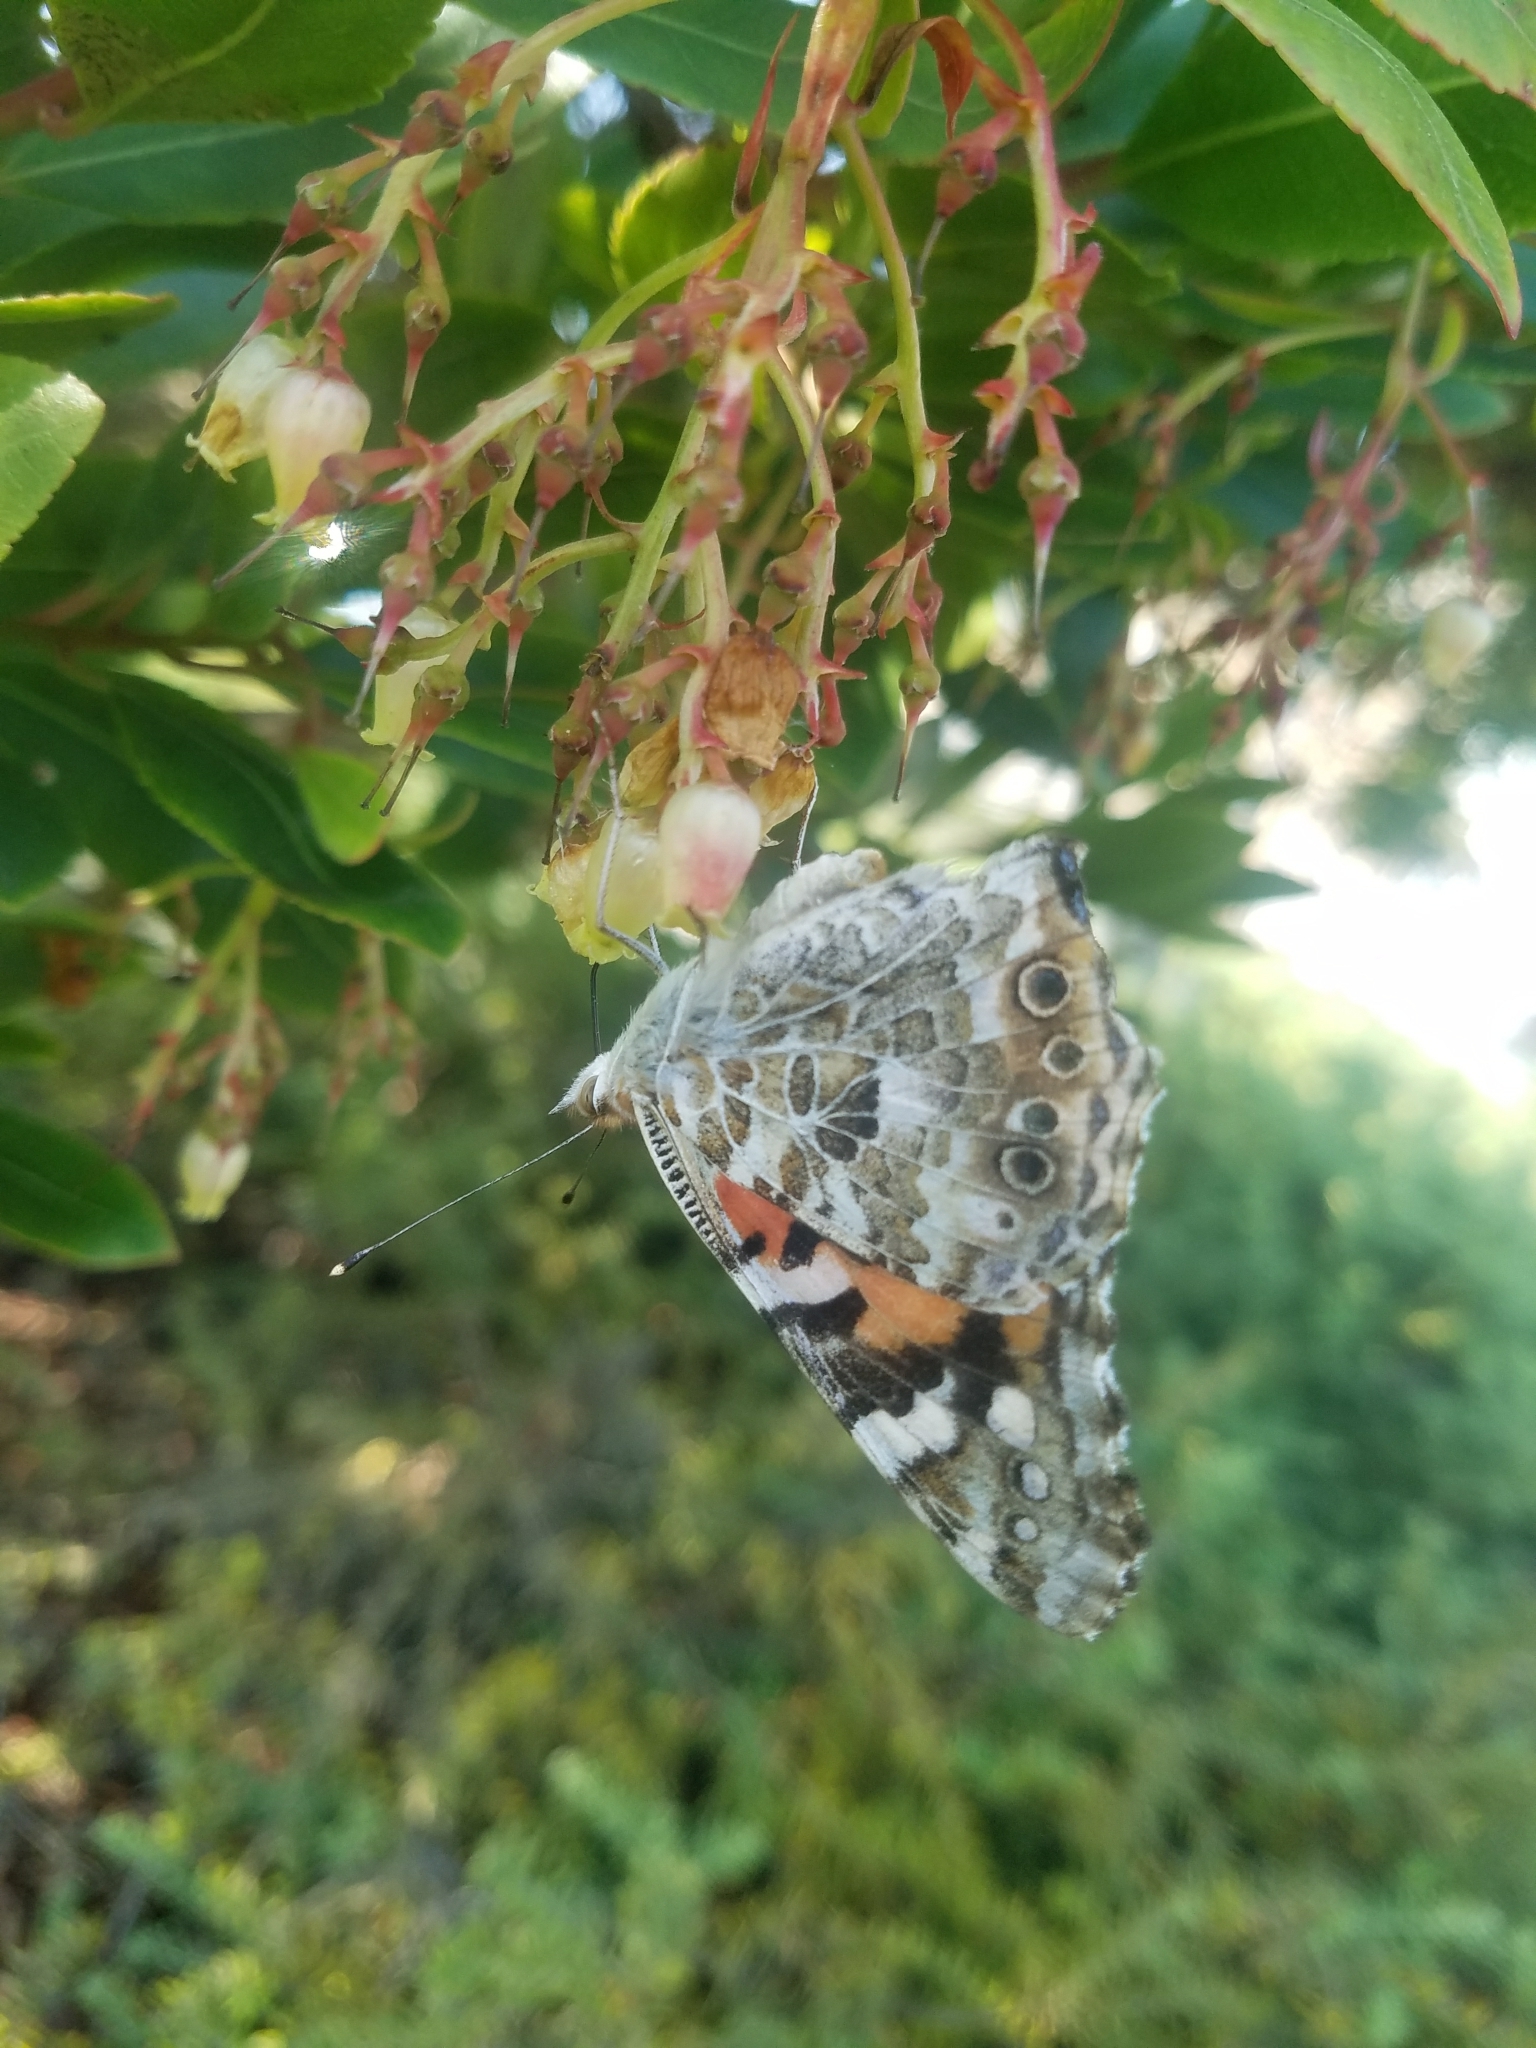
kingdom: Animalia
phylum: Arthropoda
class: Insecta
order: Lepidoptera
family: Nymphalidae
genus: Vanessa
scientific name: Vanessa cardui
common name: Painted lady
